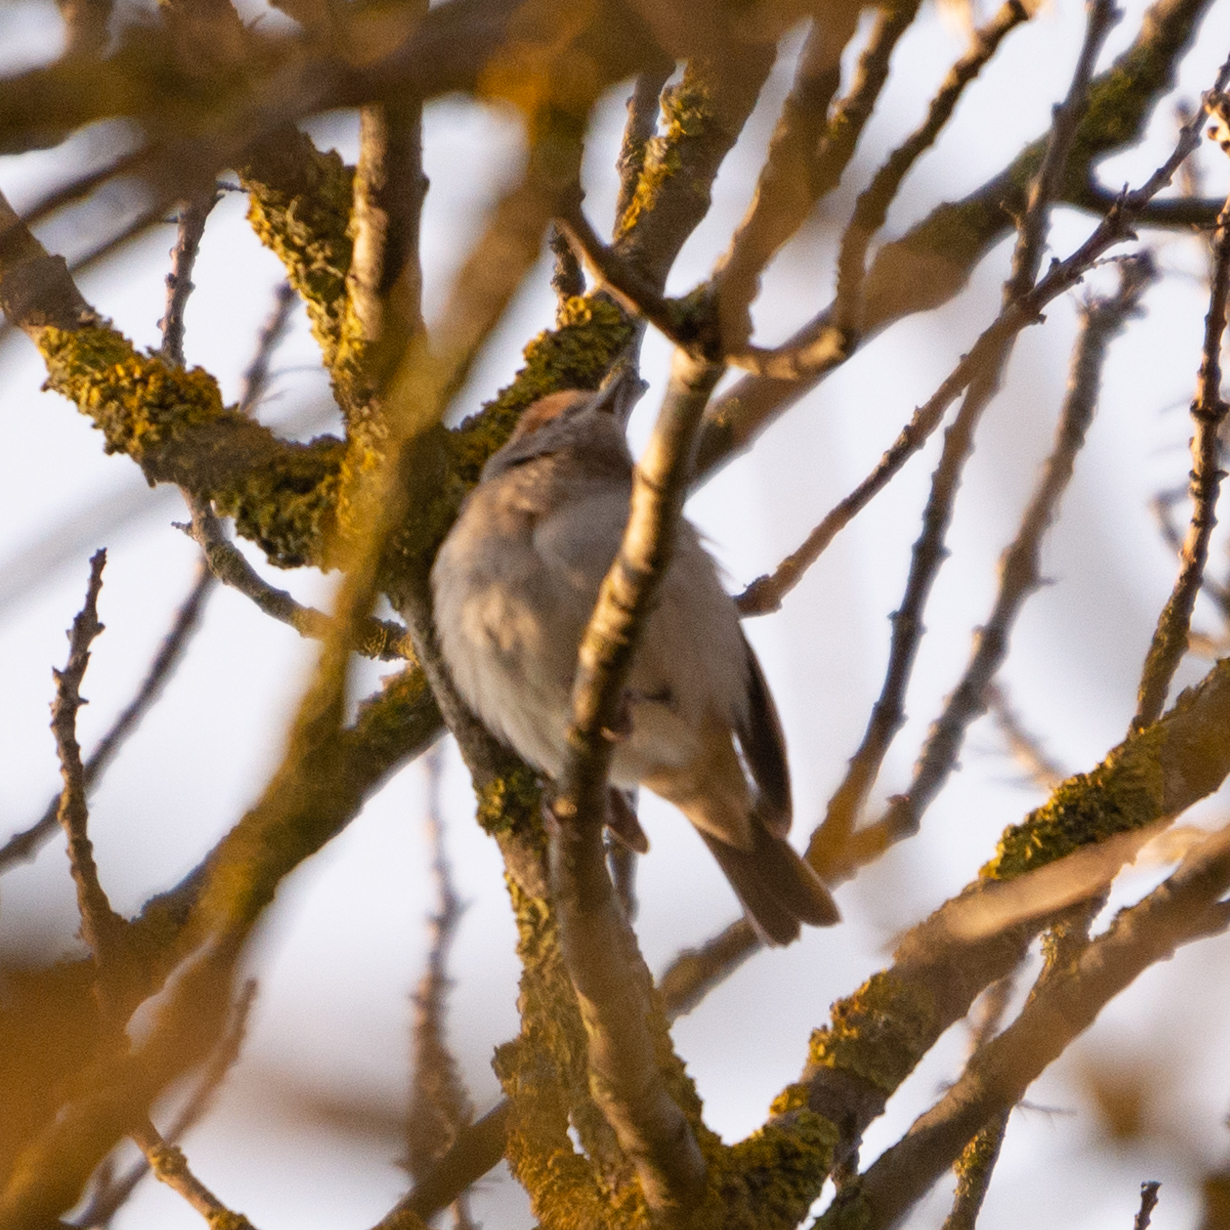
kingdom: Animalia
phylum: Chordata
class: Aves
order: Passeriformes
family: Sylviidae
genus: Sylvia
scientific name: Sylvia atricapilla
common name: Eurasian blackcap
